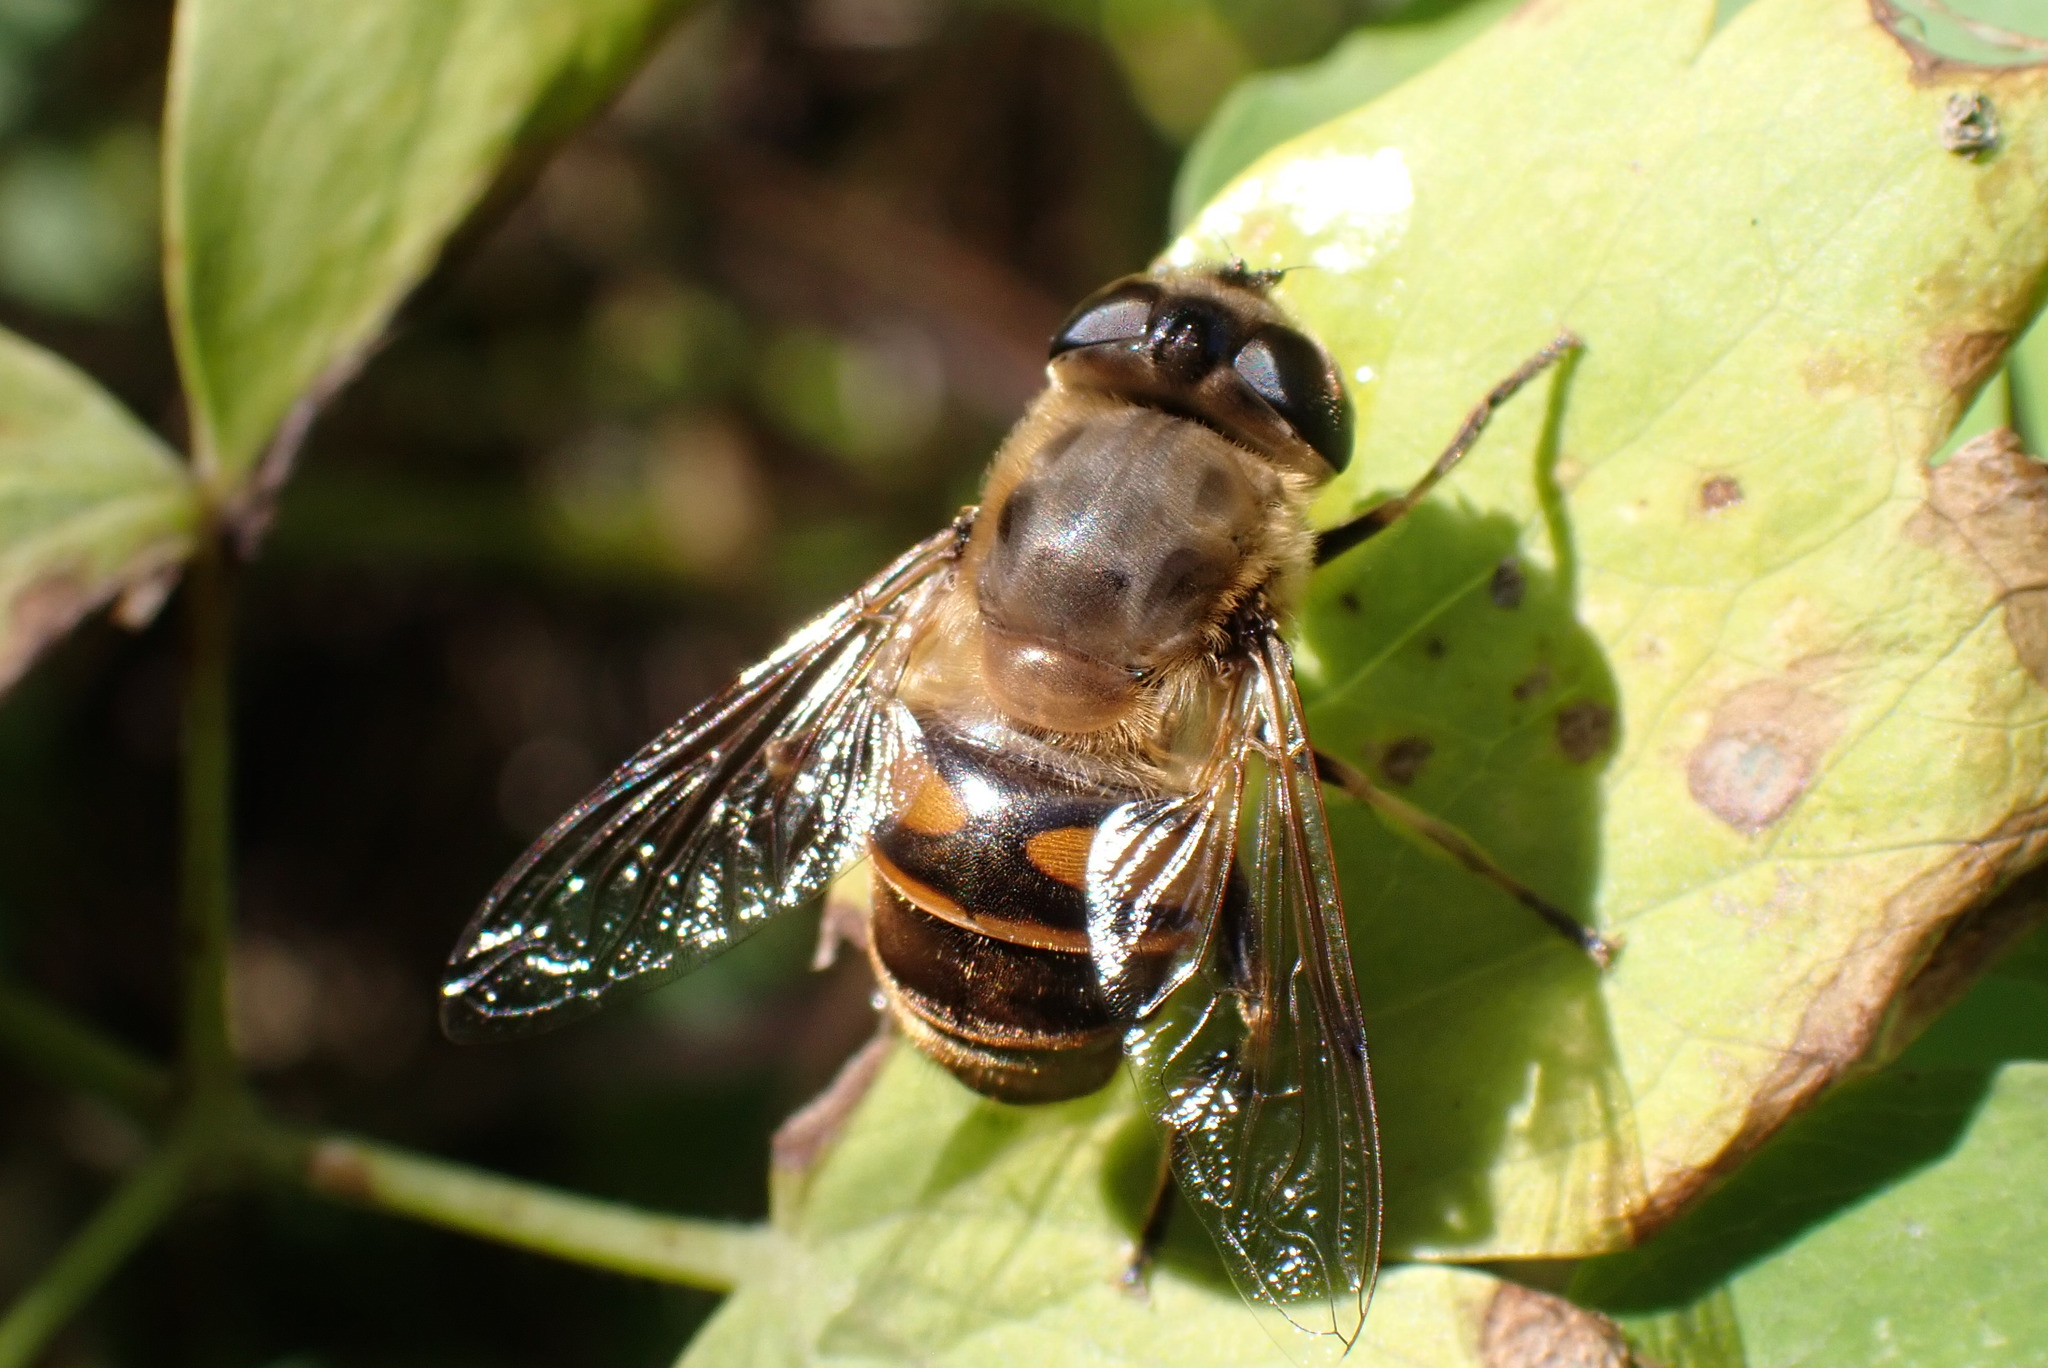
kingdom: Animalia
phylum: Arthropoda
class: Insecta
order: Diptera
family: Syrphidae
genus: Eristalis
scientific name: Eristalis tenax
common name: Drone fly
